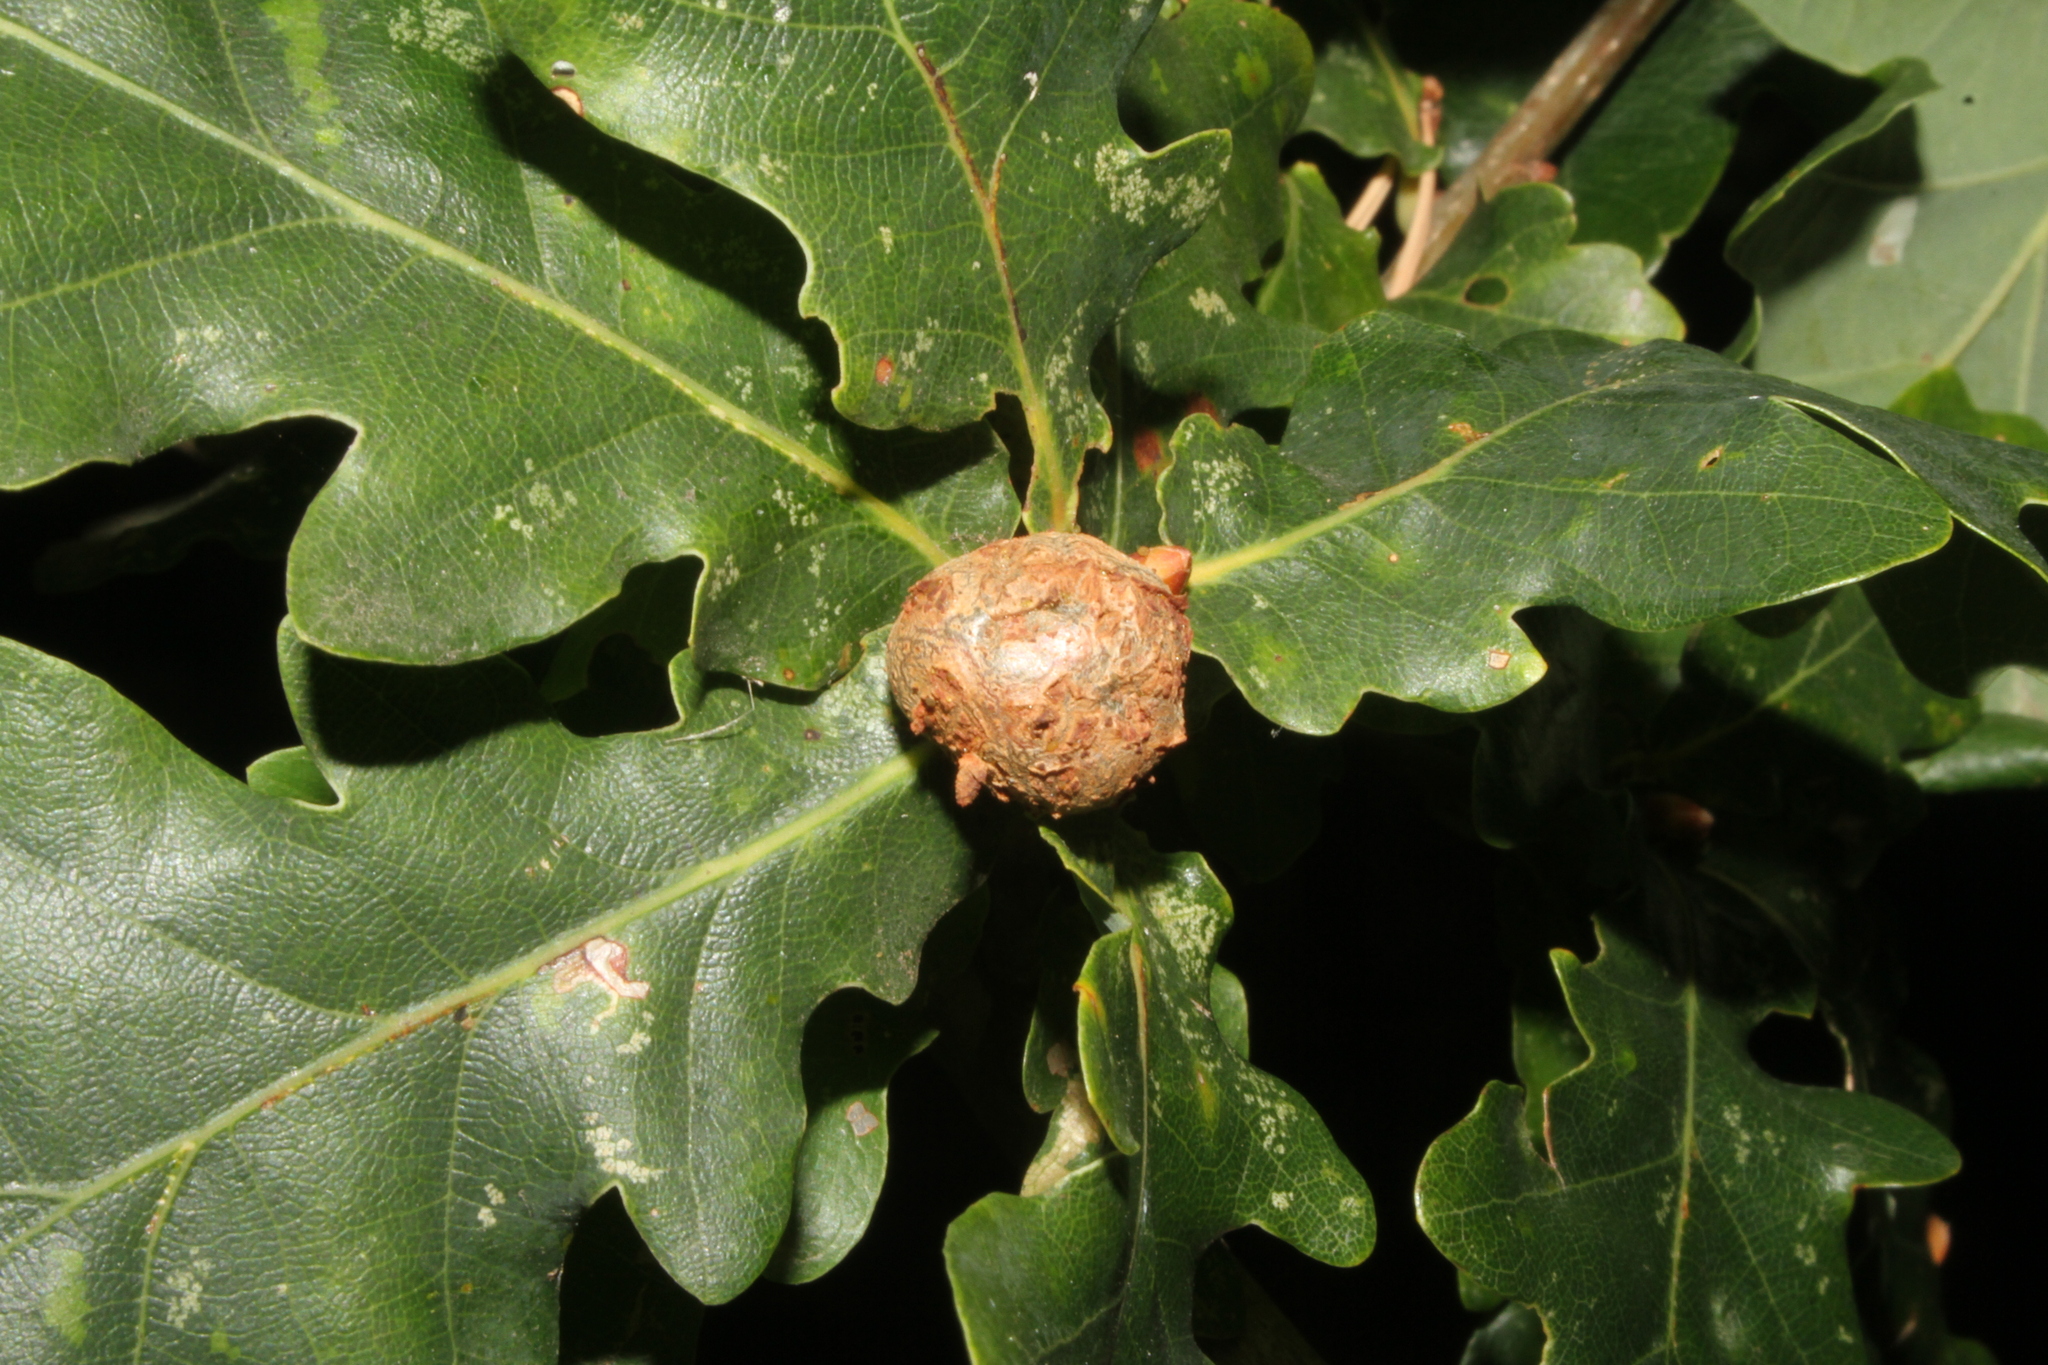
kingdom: Animalia
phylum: Arthropoda
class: Insecta
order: Hymenoptera
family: Cynipidae
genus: Andricus
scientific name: Andricus lignicolus
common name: Cola-nut gall
